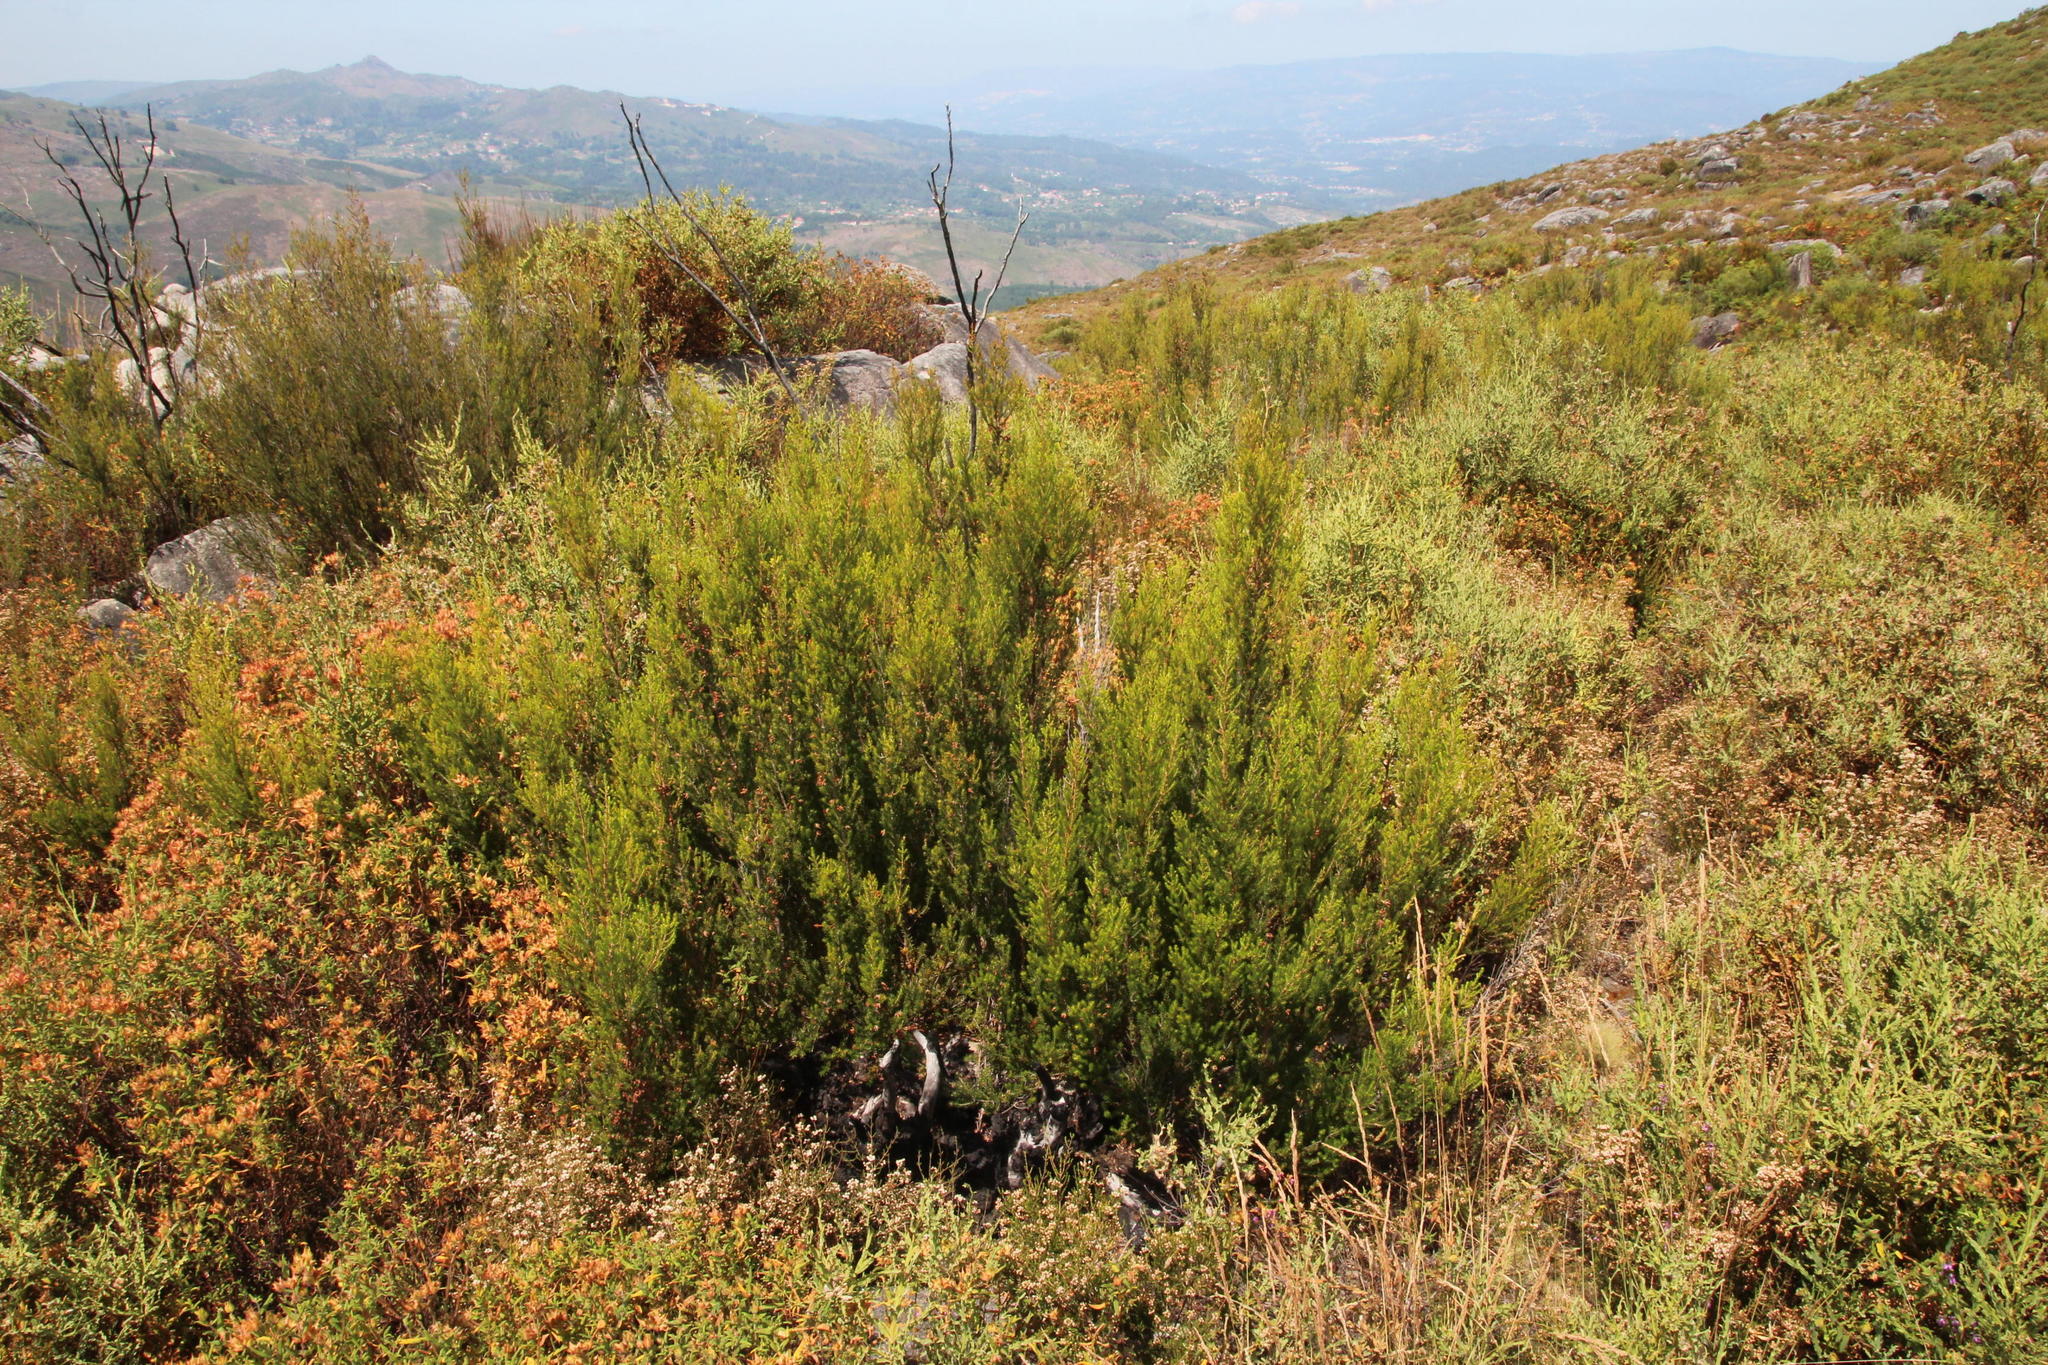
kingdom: Plantae
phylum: Tracheophyta
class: Magnoliopsida
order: Ericales
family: Ericaceae
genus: Erica
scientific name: Erica arborea
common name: Tree heath
